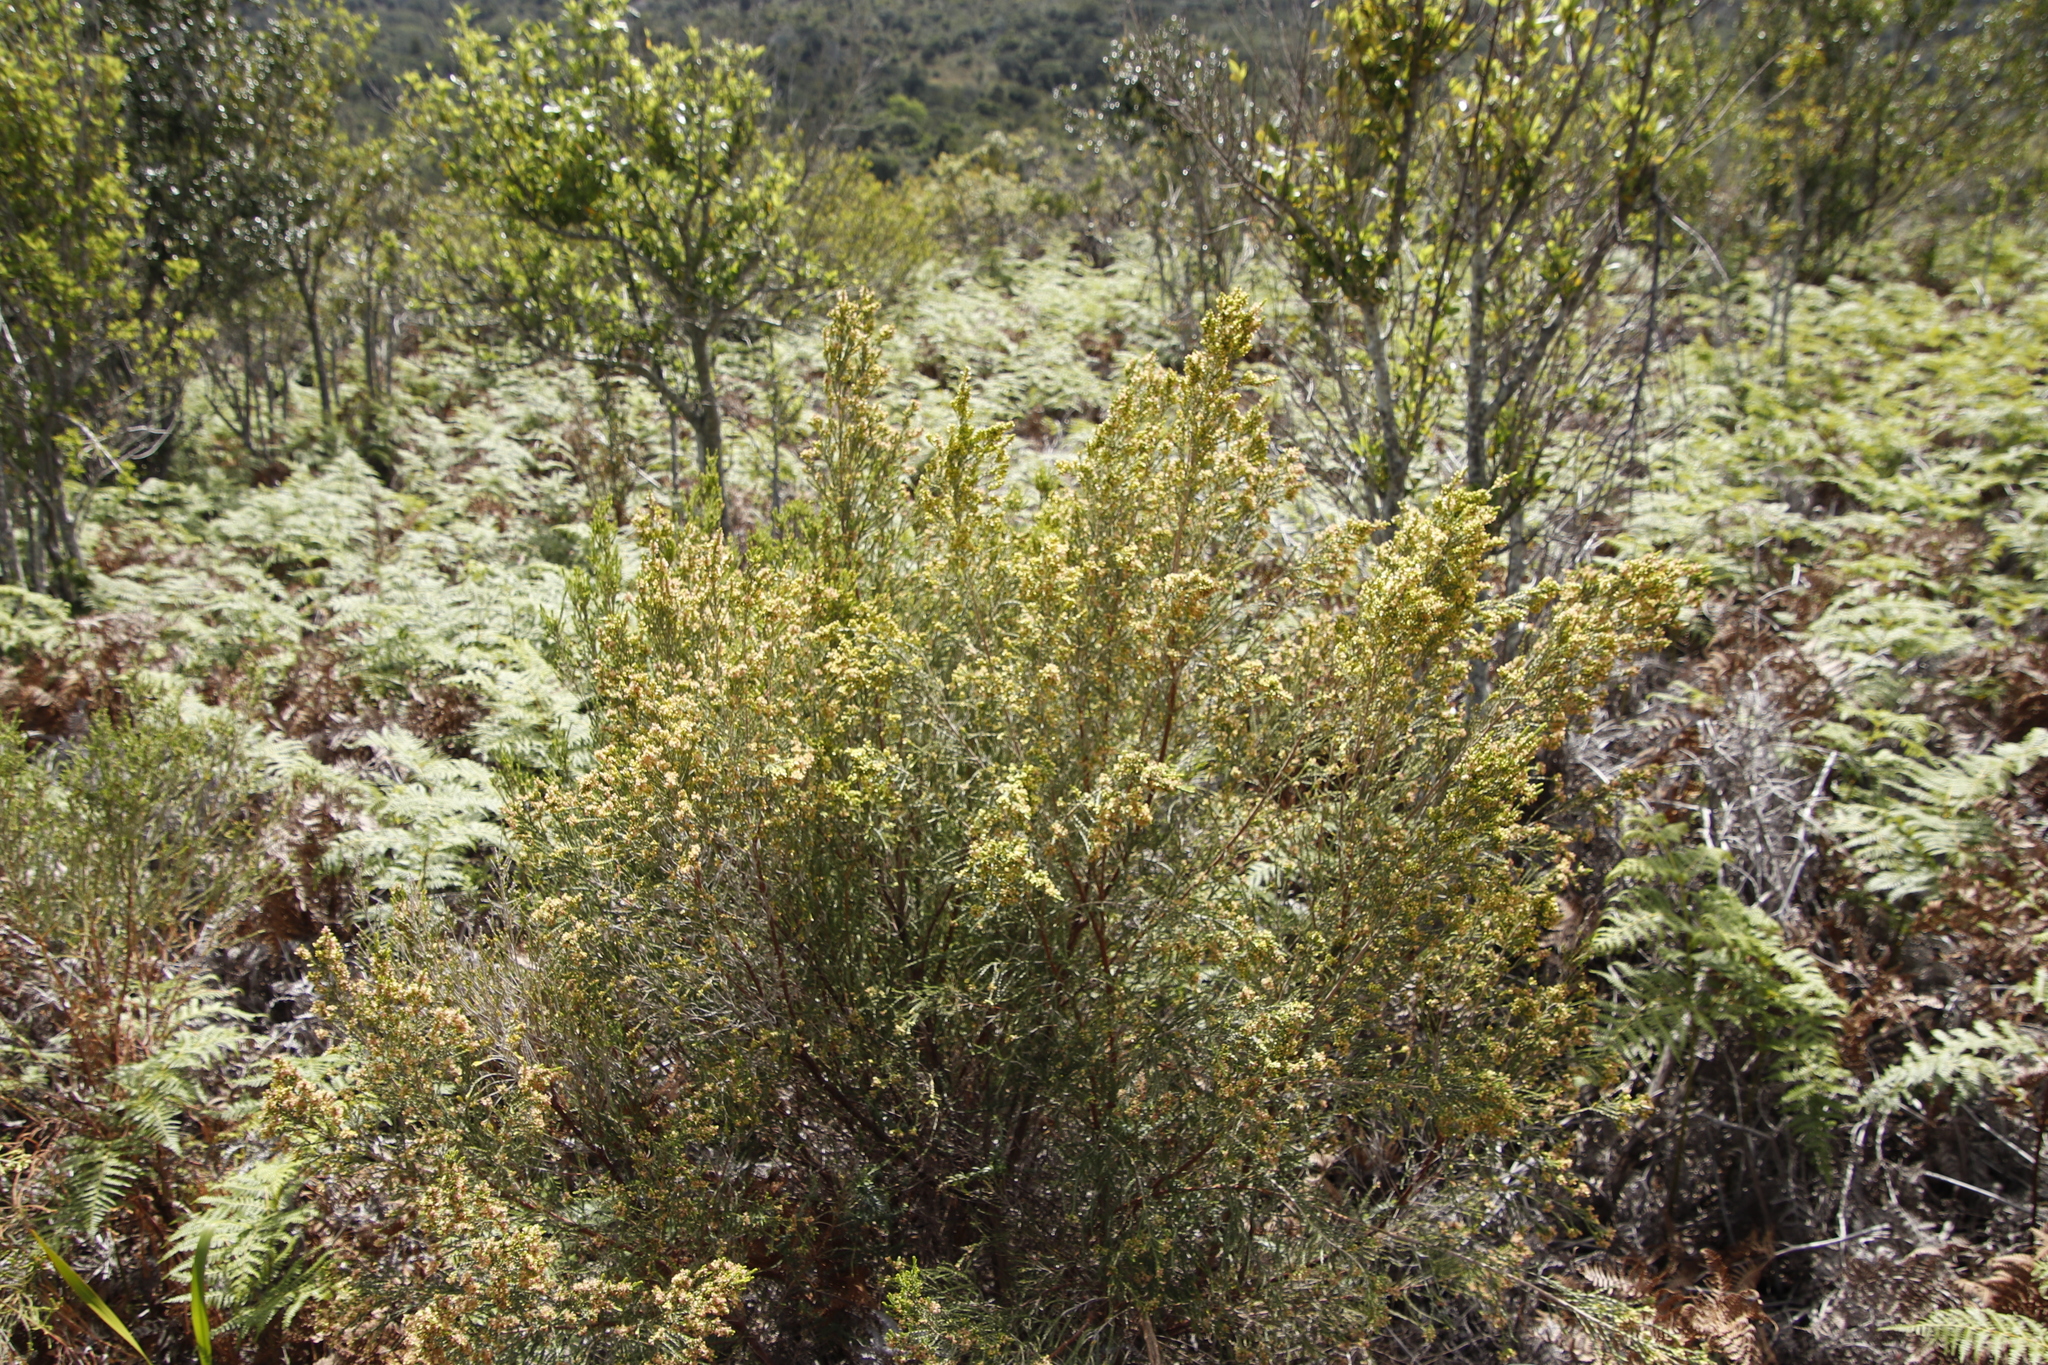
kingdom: Plantae
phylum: Tracheophyta
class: Magnoliopsida
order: Malvales
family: Thymelaeaceae
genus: Passerina
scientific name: Passerina corymbosa
